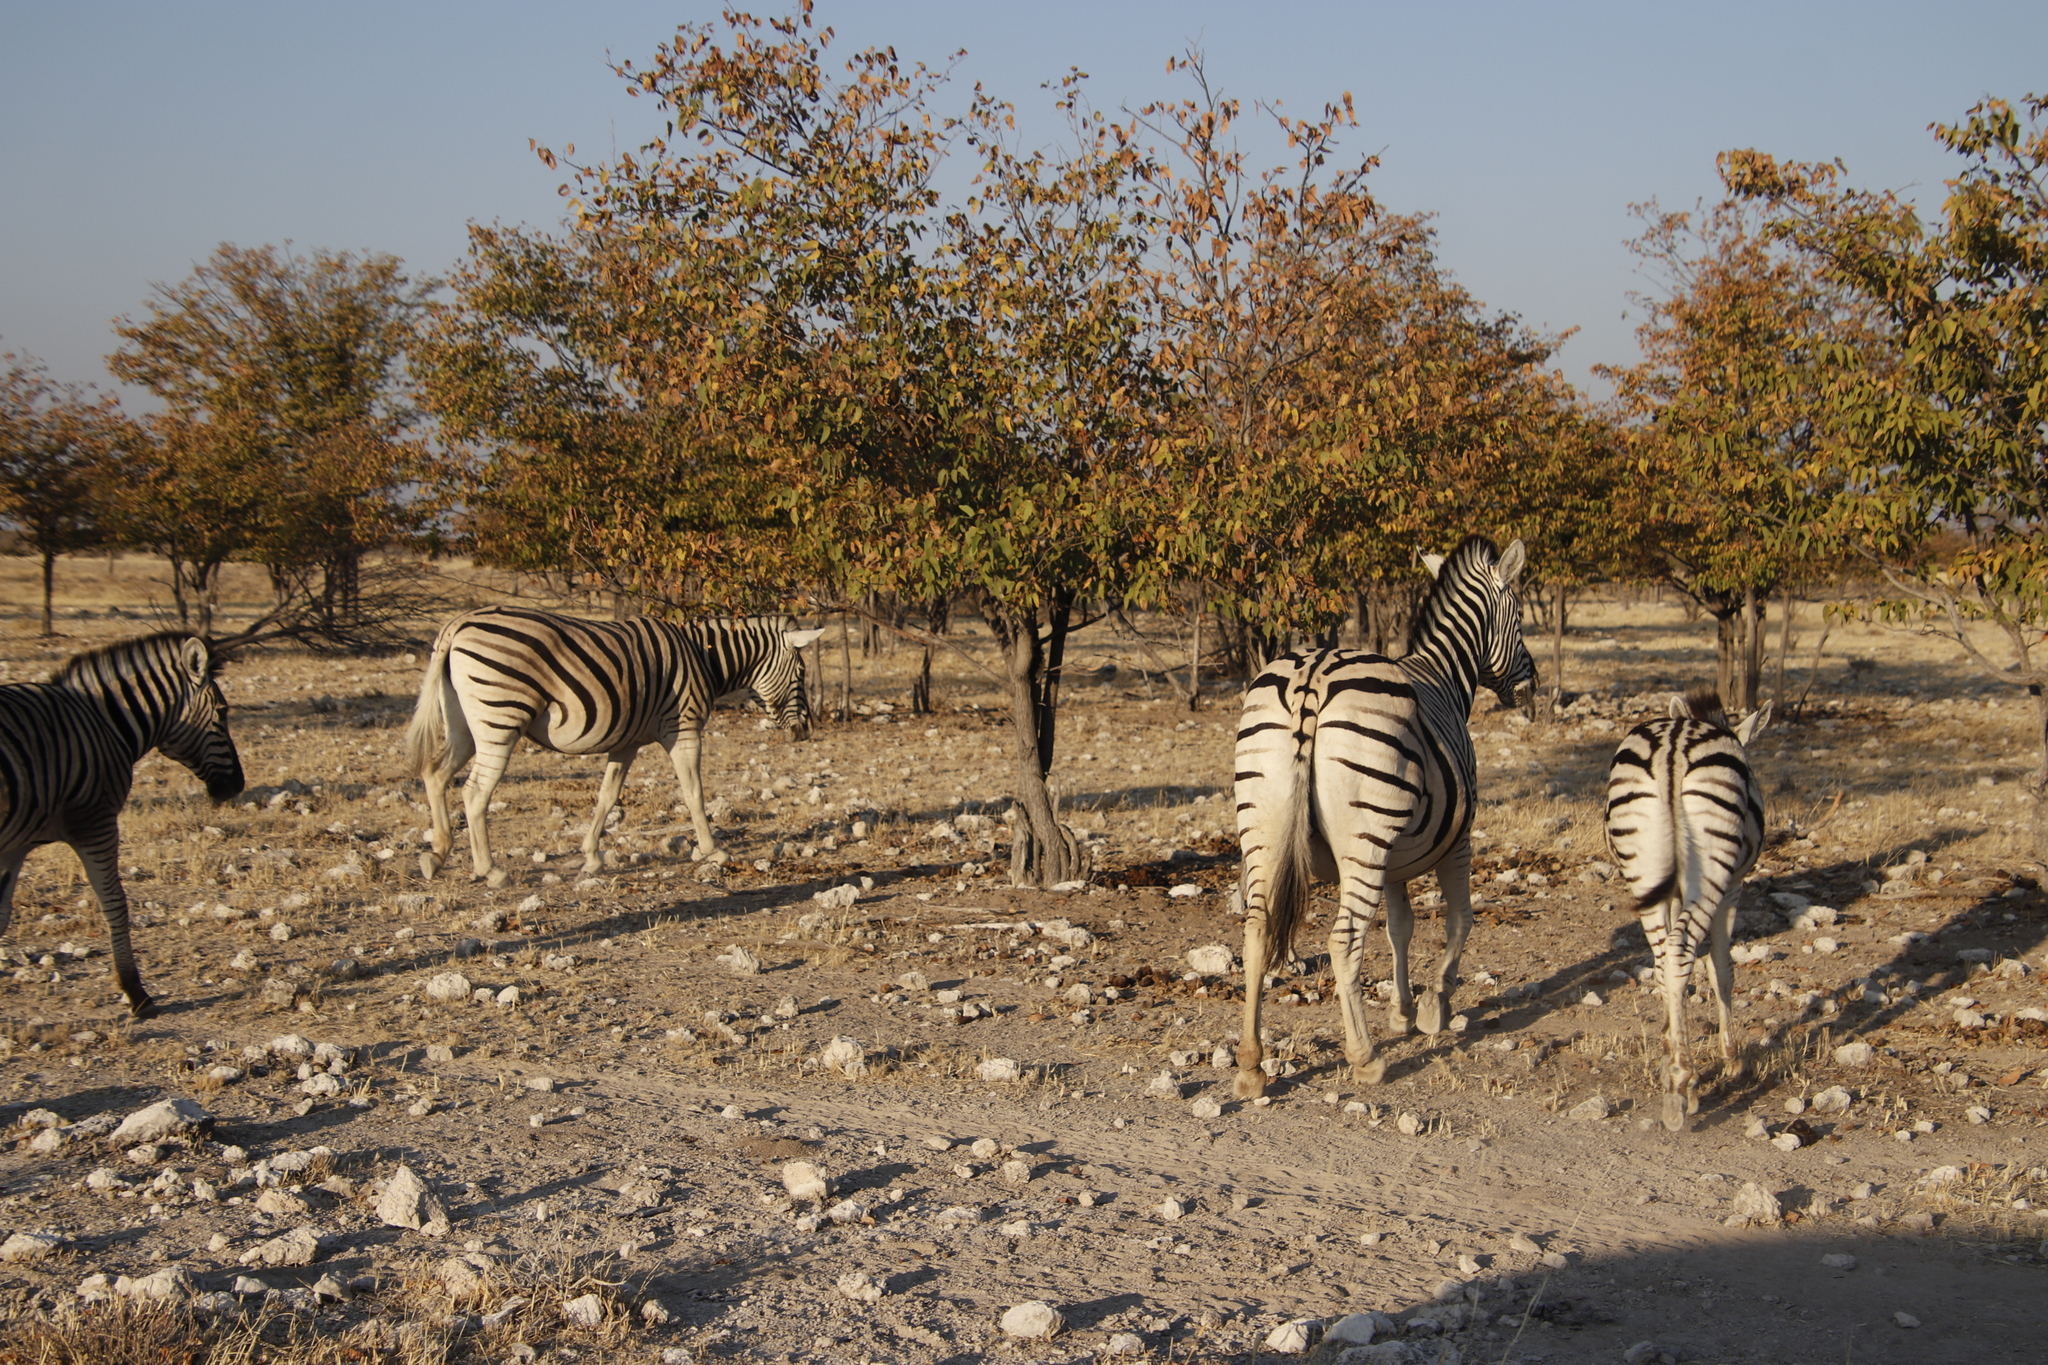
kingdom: Plantae
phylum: Tracheophyta
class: Magnoliopsida
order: Fabales
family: Fabaceae
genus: Colophospermum
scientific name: Colophospermum mopane
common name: Mopane
